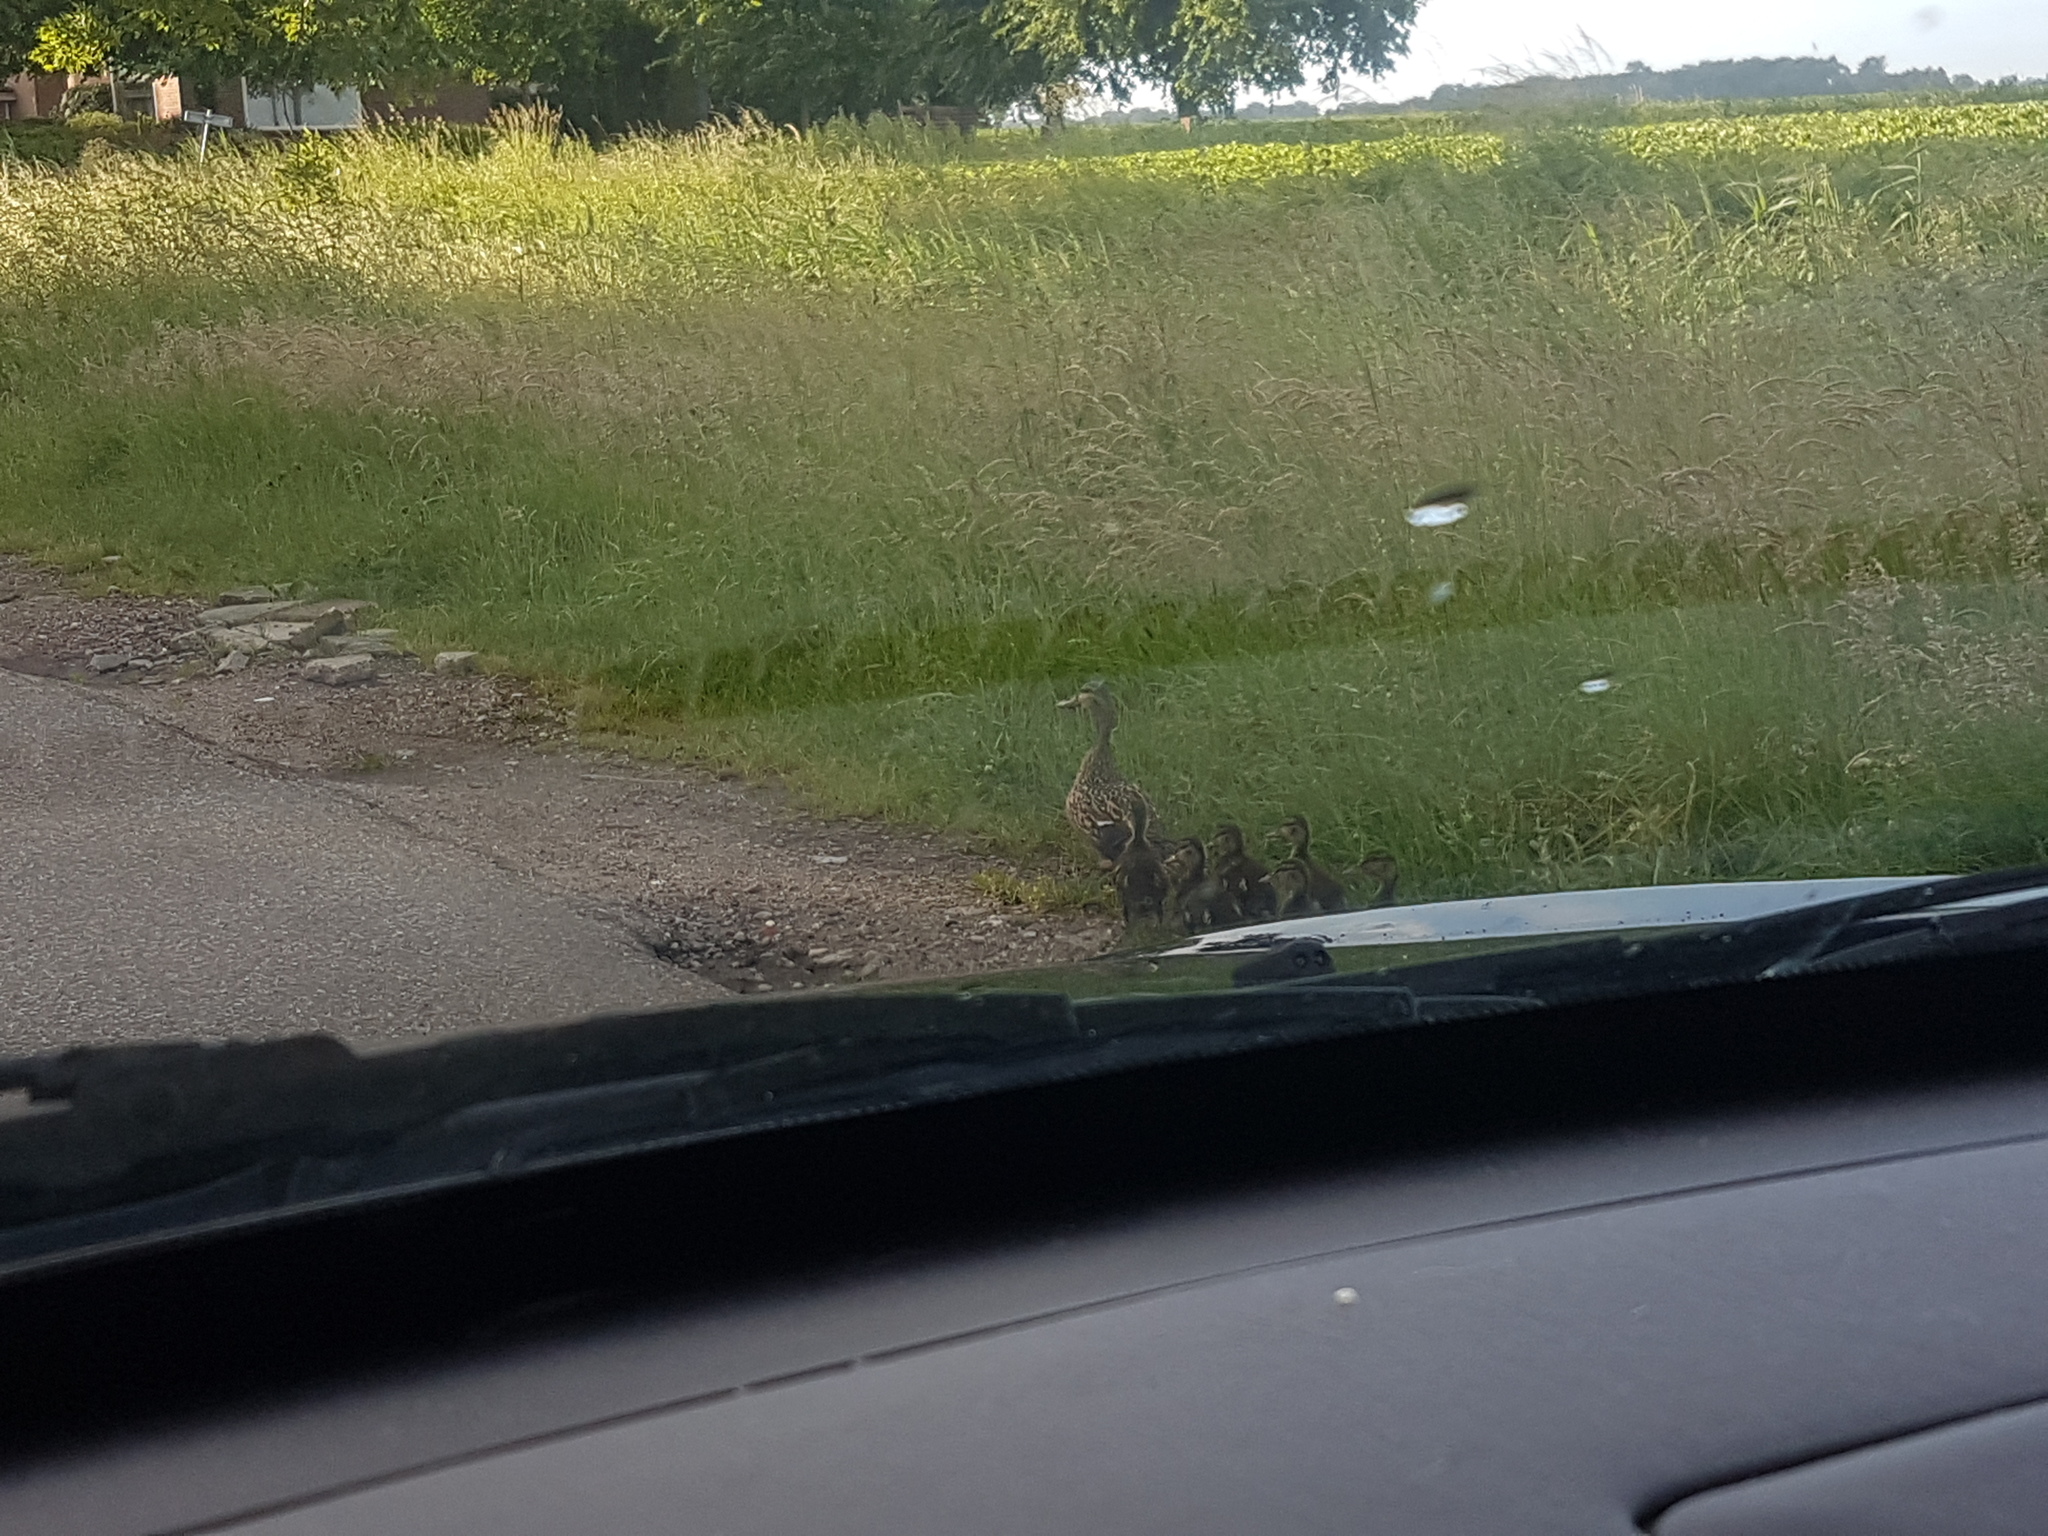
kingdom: Animalia
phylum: Chordata
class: Aves
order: Anseriformes
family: Anatidae
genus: Anas
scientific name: Anas platyrhynchos
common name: Mallard
